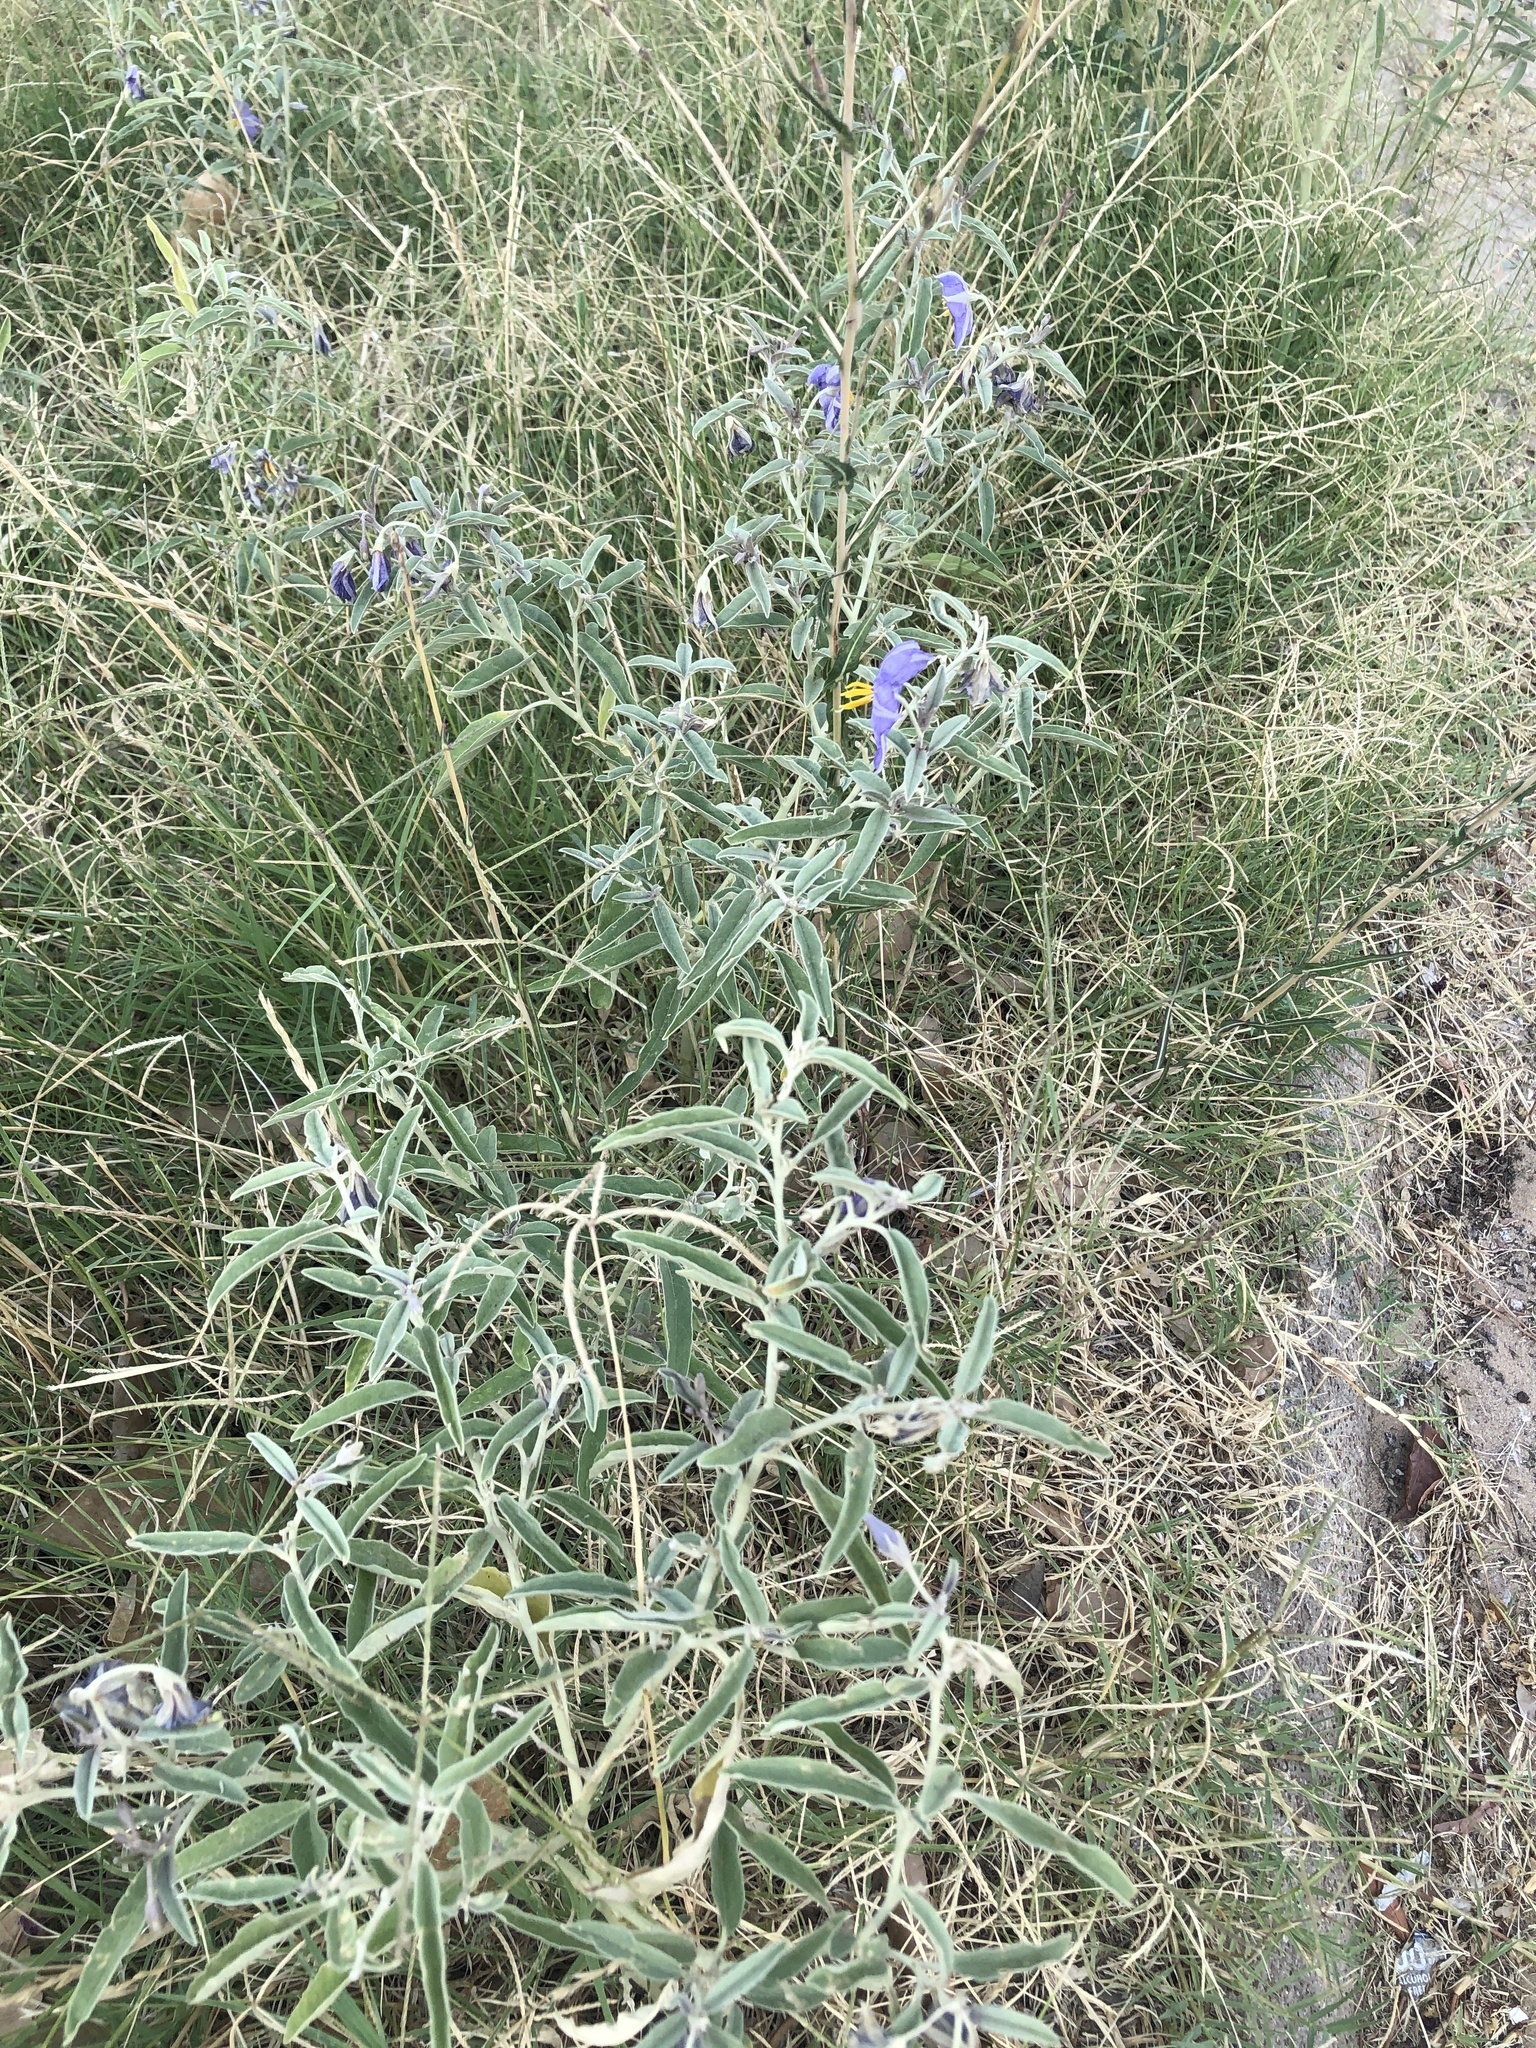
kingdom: Plantae
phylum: Tracheophyta
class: Magnoliopsida
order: Solanales
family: Solanaceae
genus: Solanum
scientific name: Solanum elaeagnifolium
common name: Silverleaf nightshade
